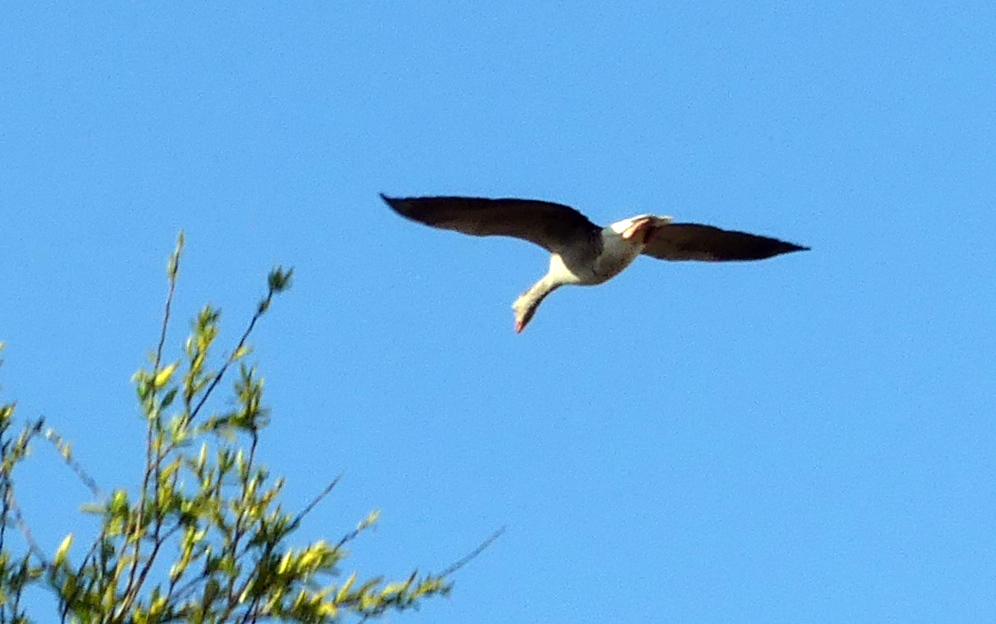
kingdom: Animalia
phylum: Chordata
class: Aves
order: Anseriformes
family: Anatidae
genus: Anser
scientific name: Anser anser
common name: Greylag goose
